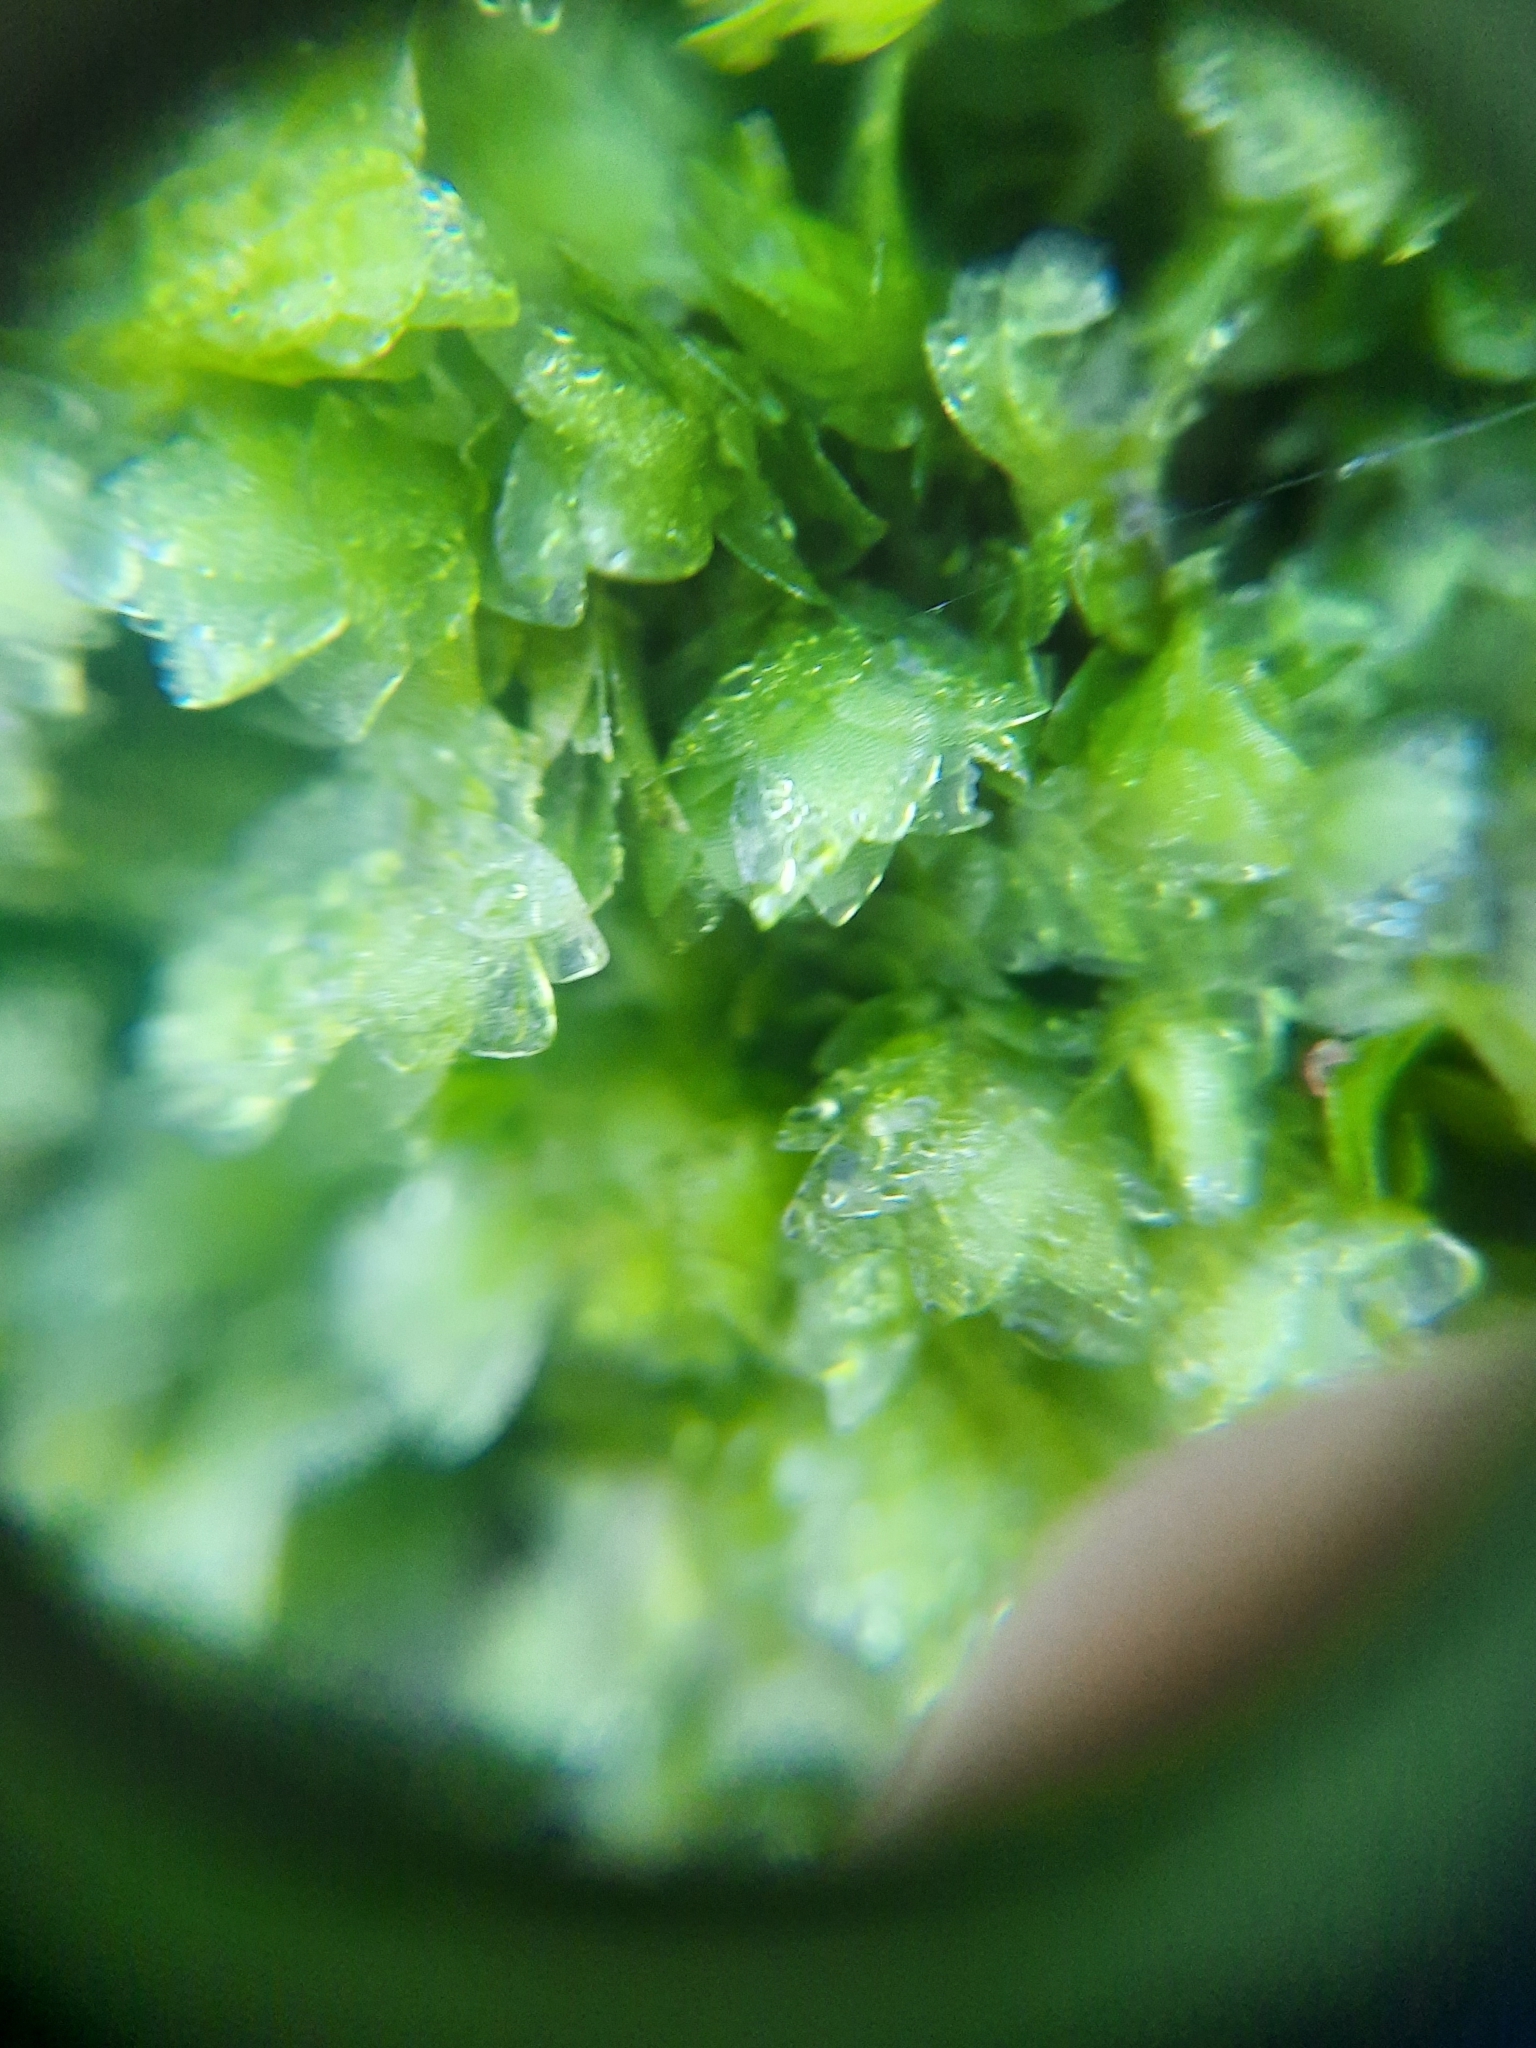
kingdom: Plantae
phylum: Bryophyta
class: Bryopsida
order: Hookeriales
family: Hookeriaceae
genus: Hookeria
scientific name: Hookeria lucens
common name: Shining hookeria
